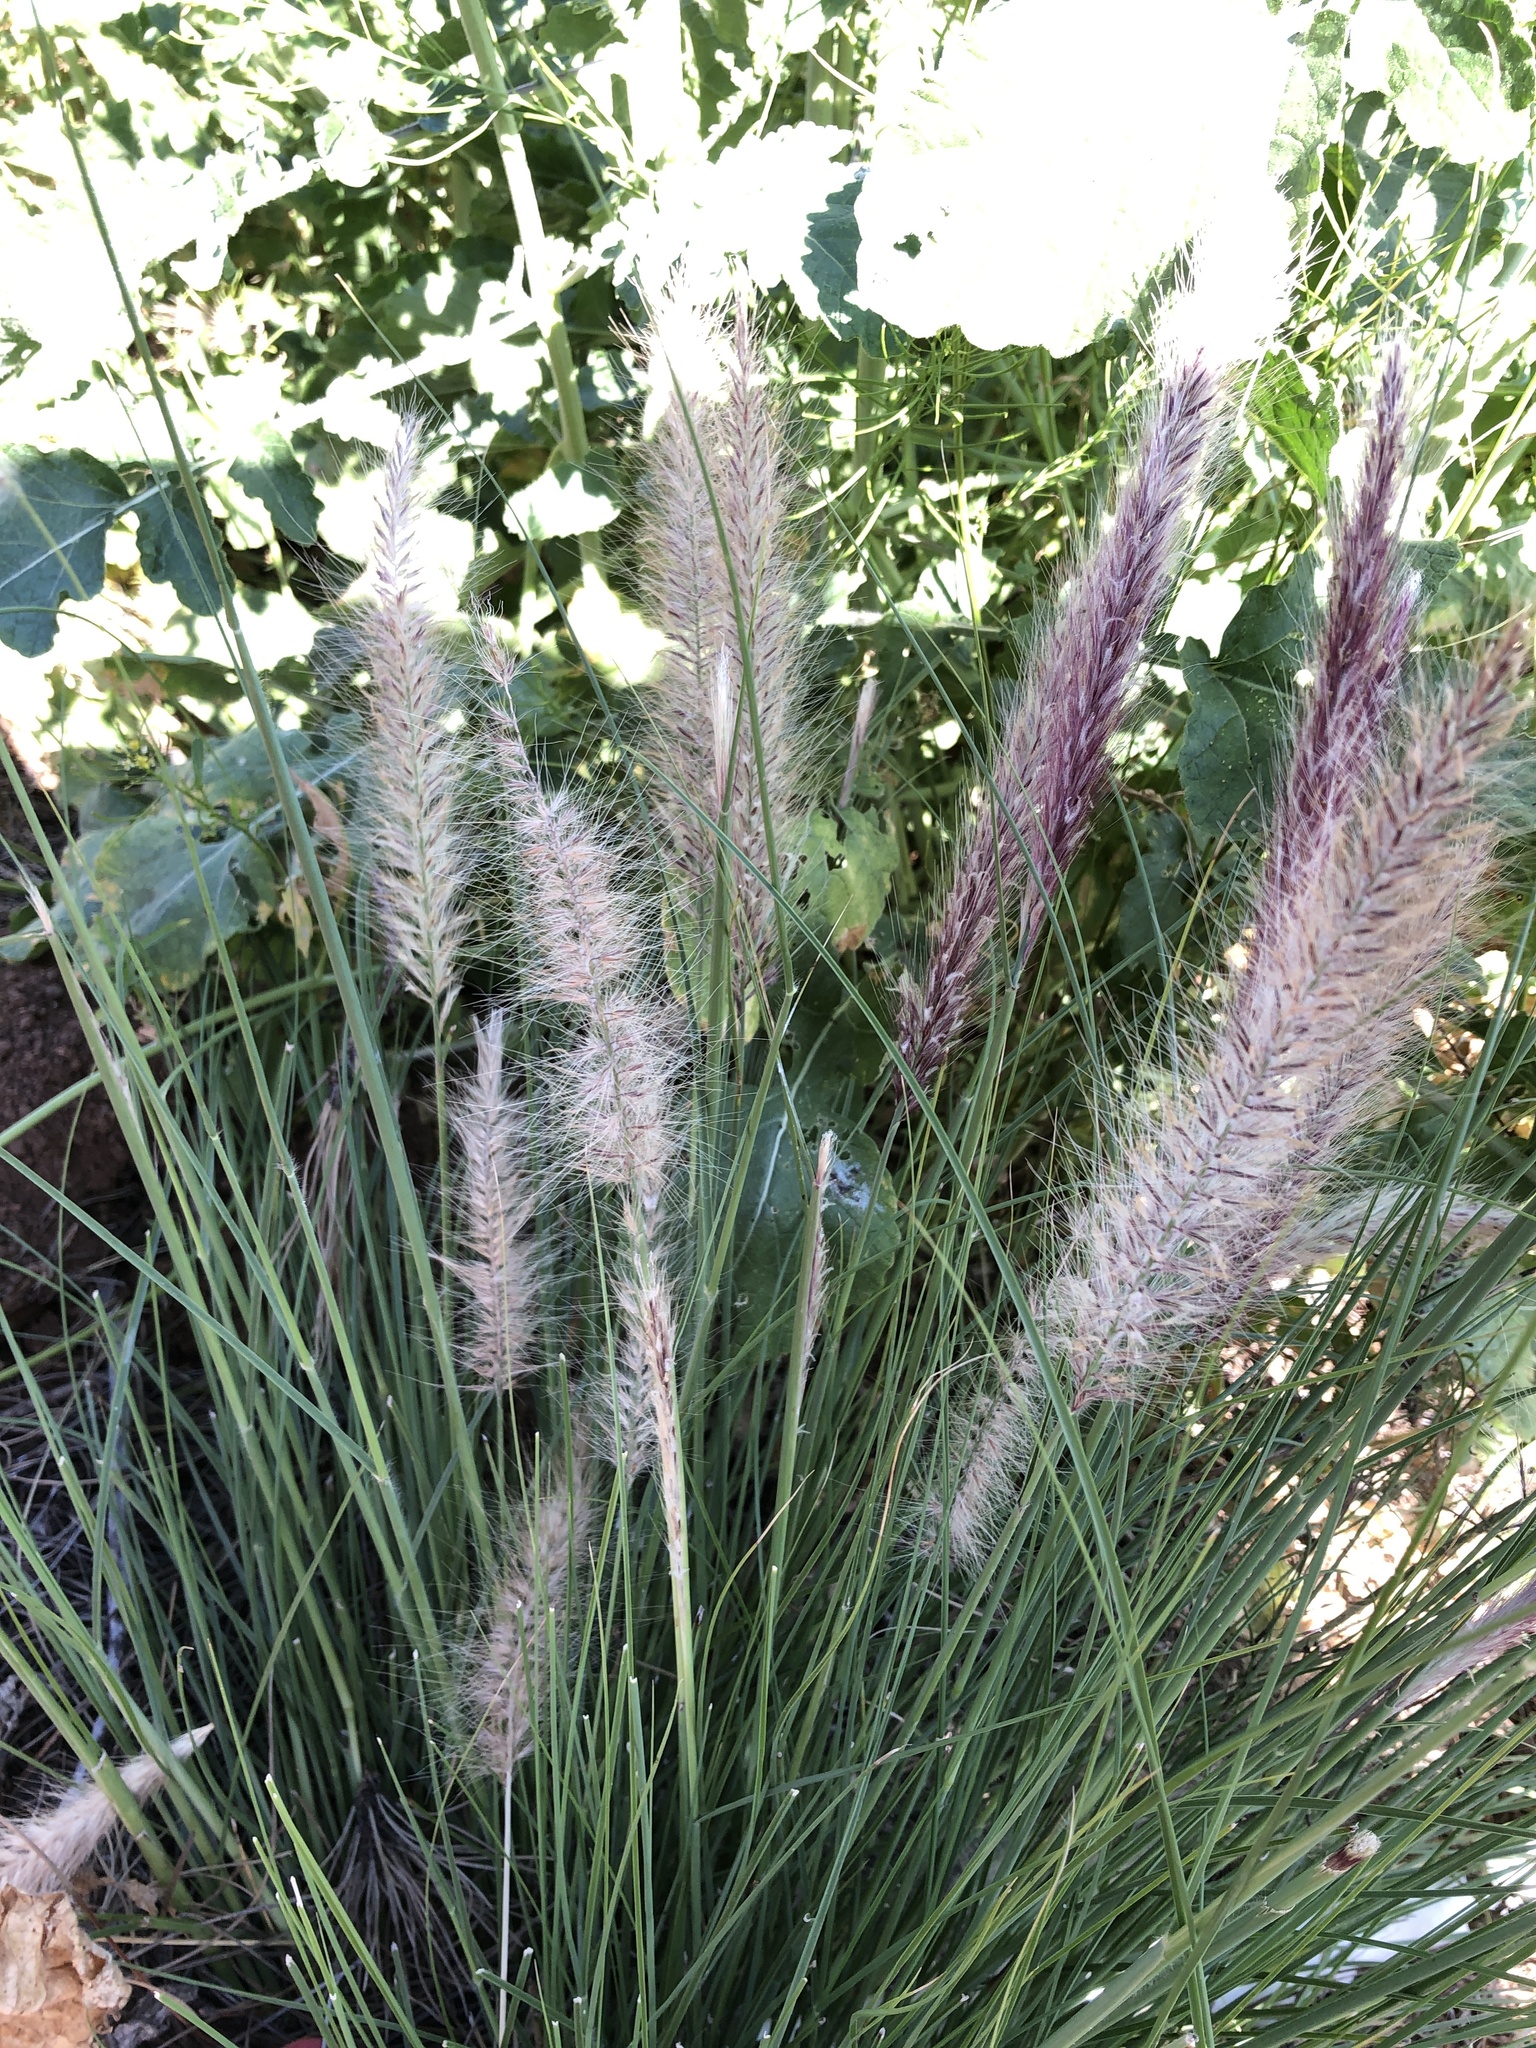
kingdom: Plantae
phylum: Tracheophyta
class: Liliopsida
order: Poales
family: Poaceae
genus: Cenchrus
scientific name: Cenchrus setaceus
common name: Crimson fountaingrass
